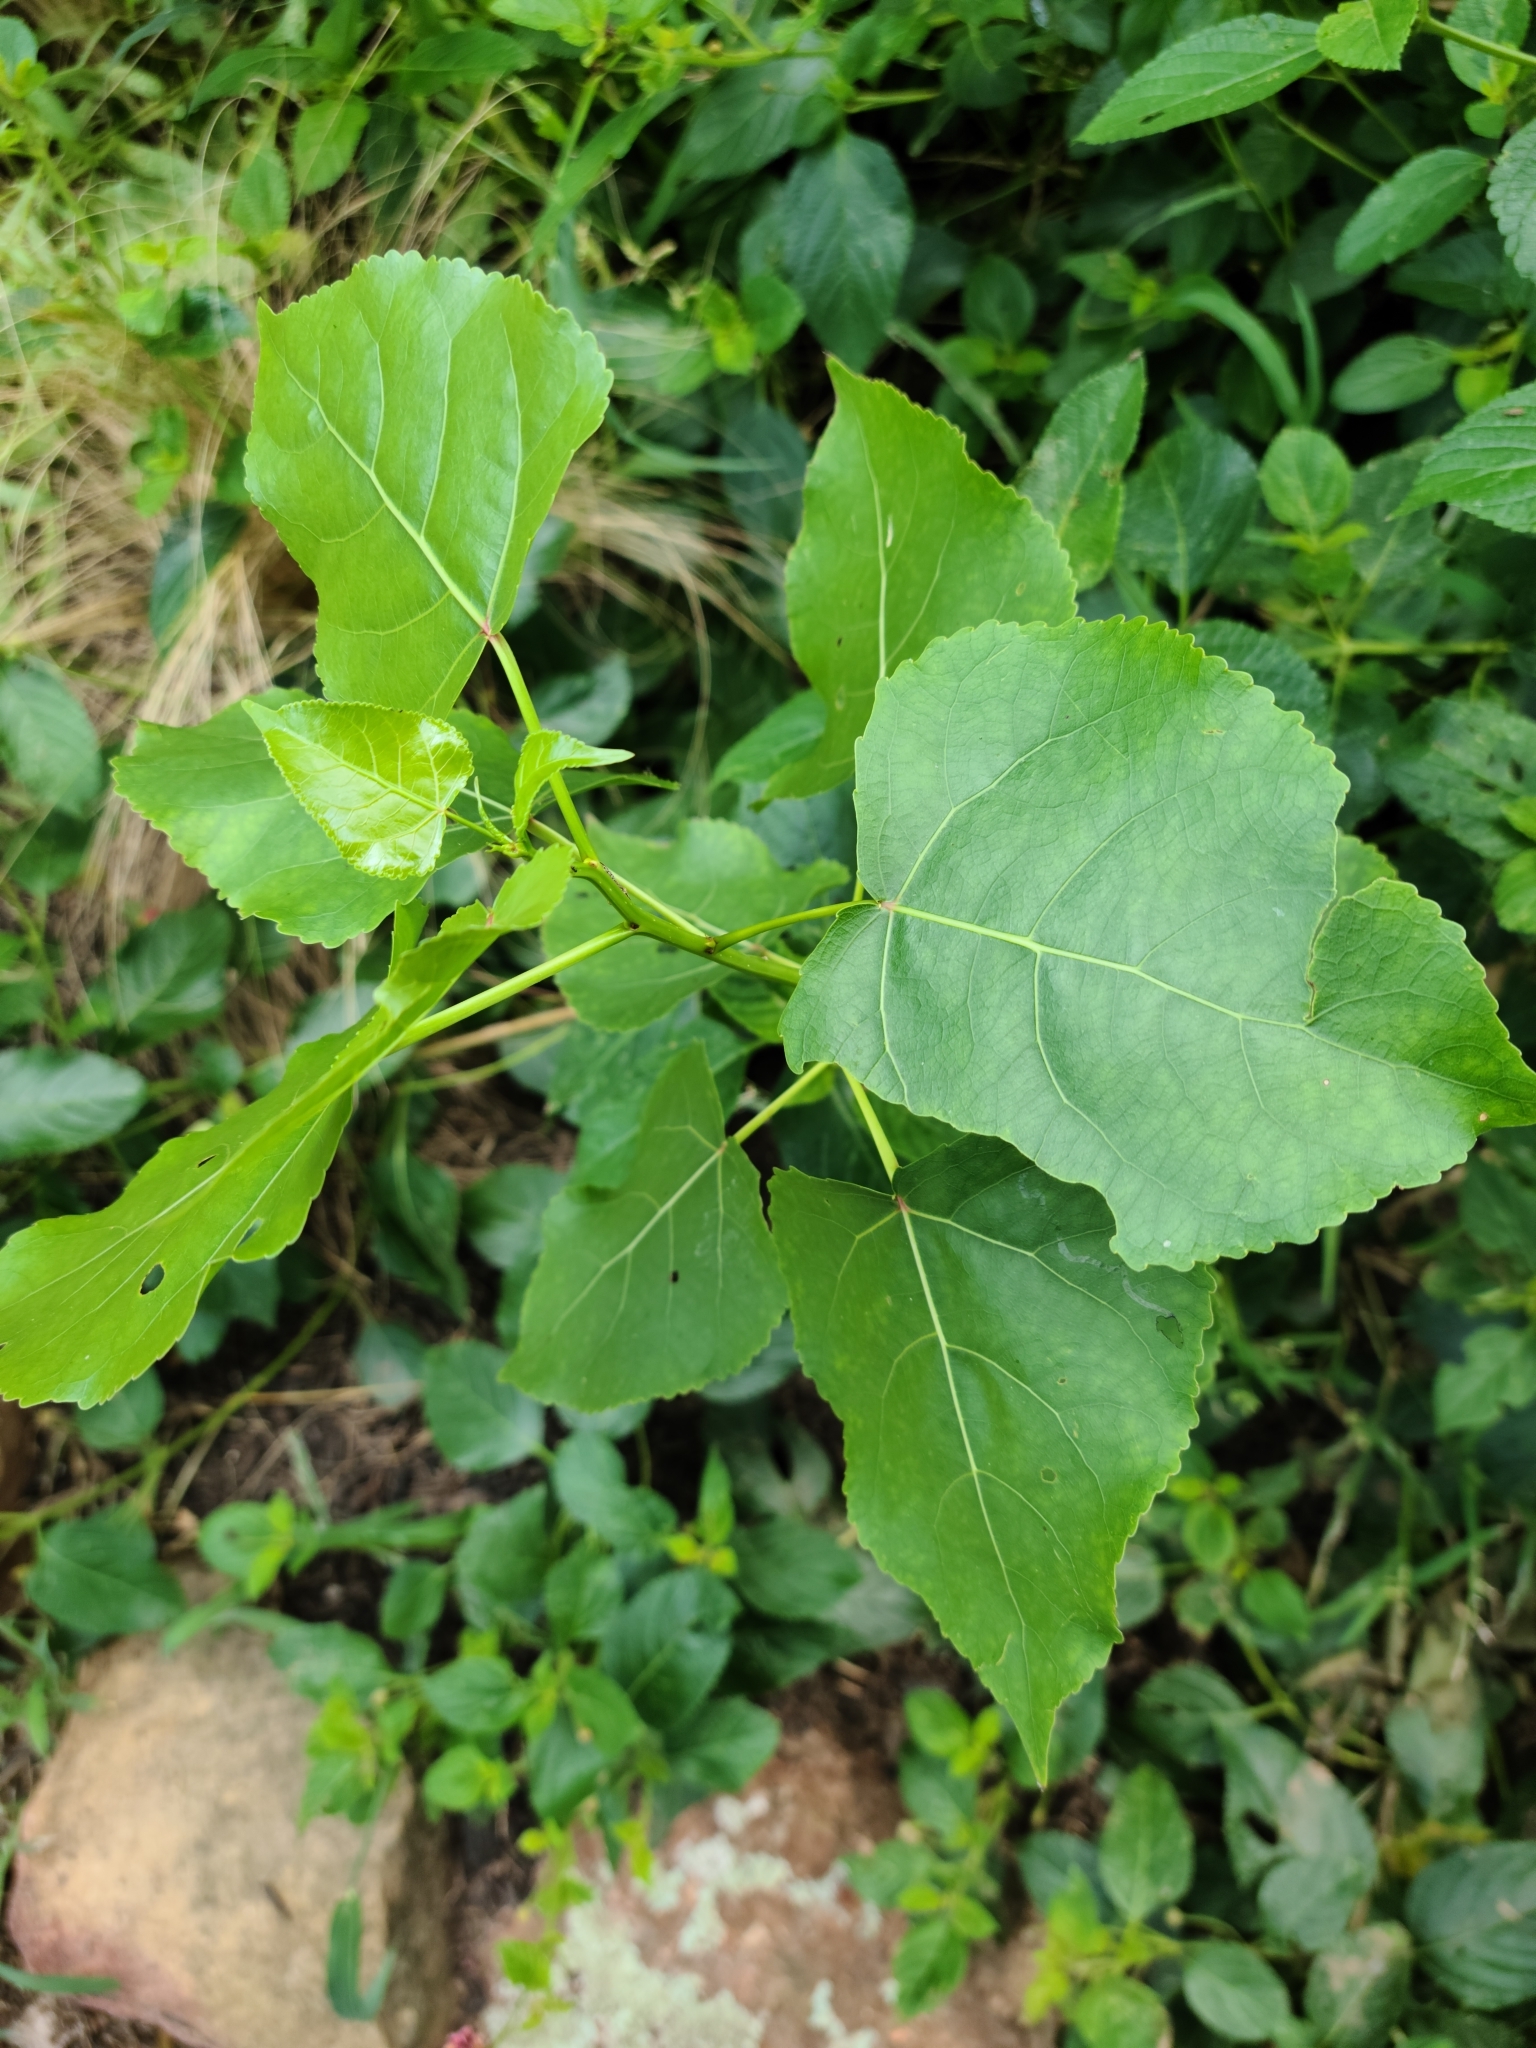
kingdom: Plantae
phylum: Tracheophyta
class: Magnoliopsida
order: Malpighiales
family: Salicaceae
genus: Populus
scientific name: Populus deltoides
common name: Eastern cottonwood
